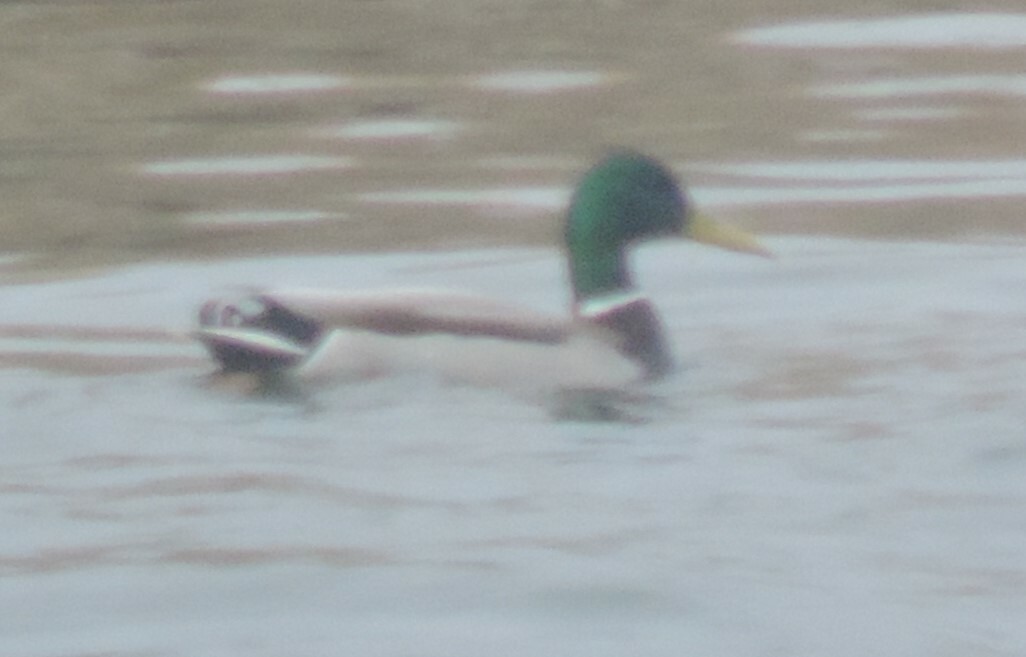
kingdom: Animalia
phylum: Chordata
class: Aves
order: Anseriformes
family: Anatidae
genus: Anas
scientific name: Anas platyrhynchos
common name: Mallard
